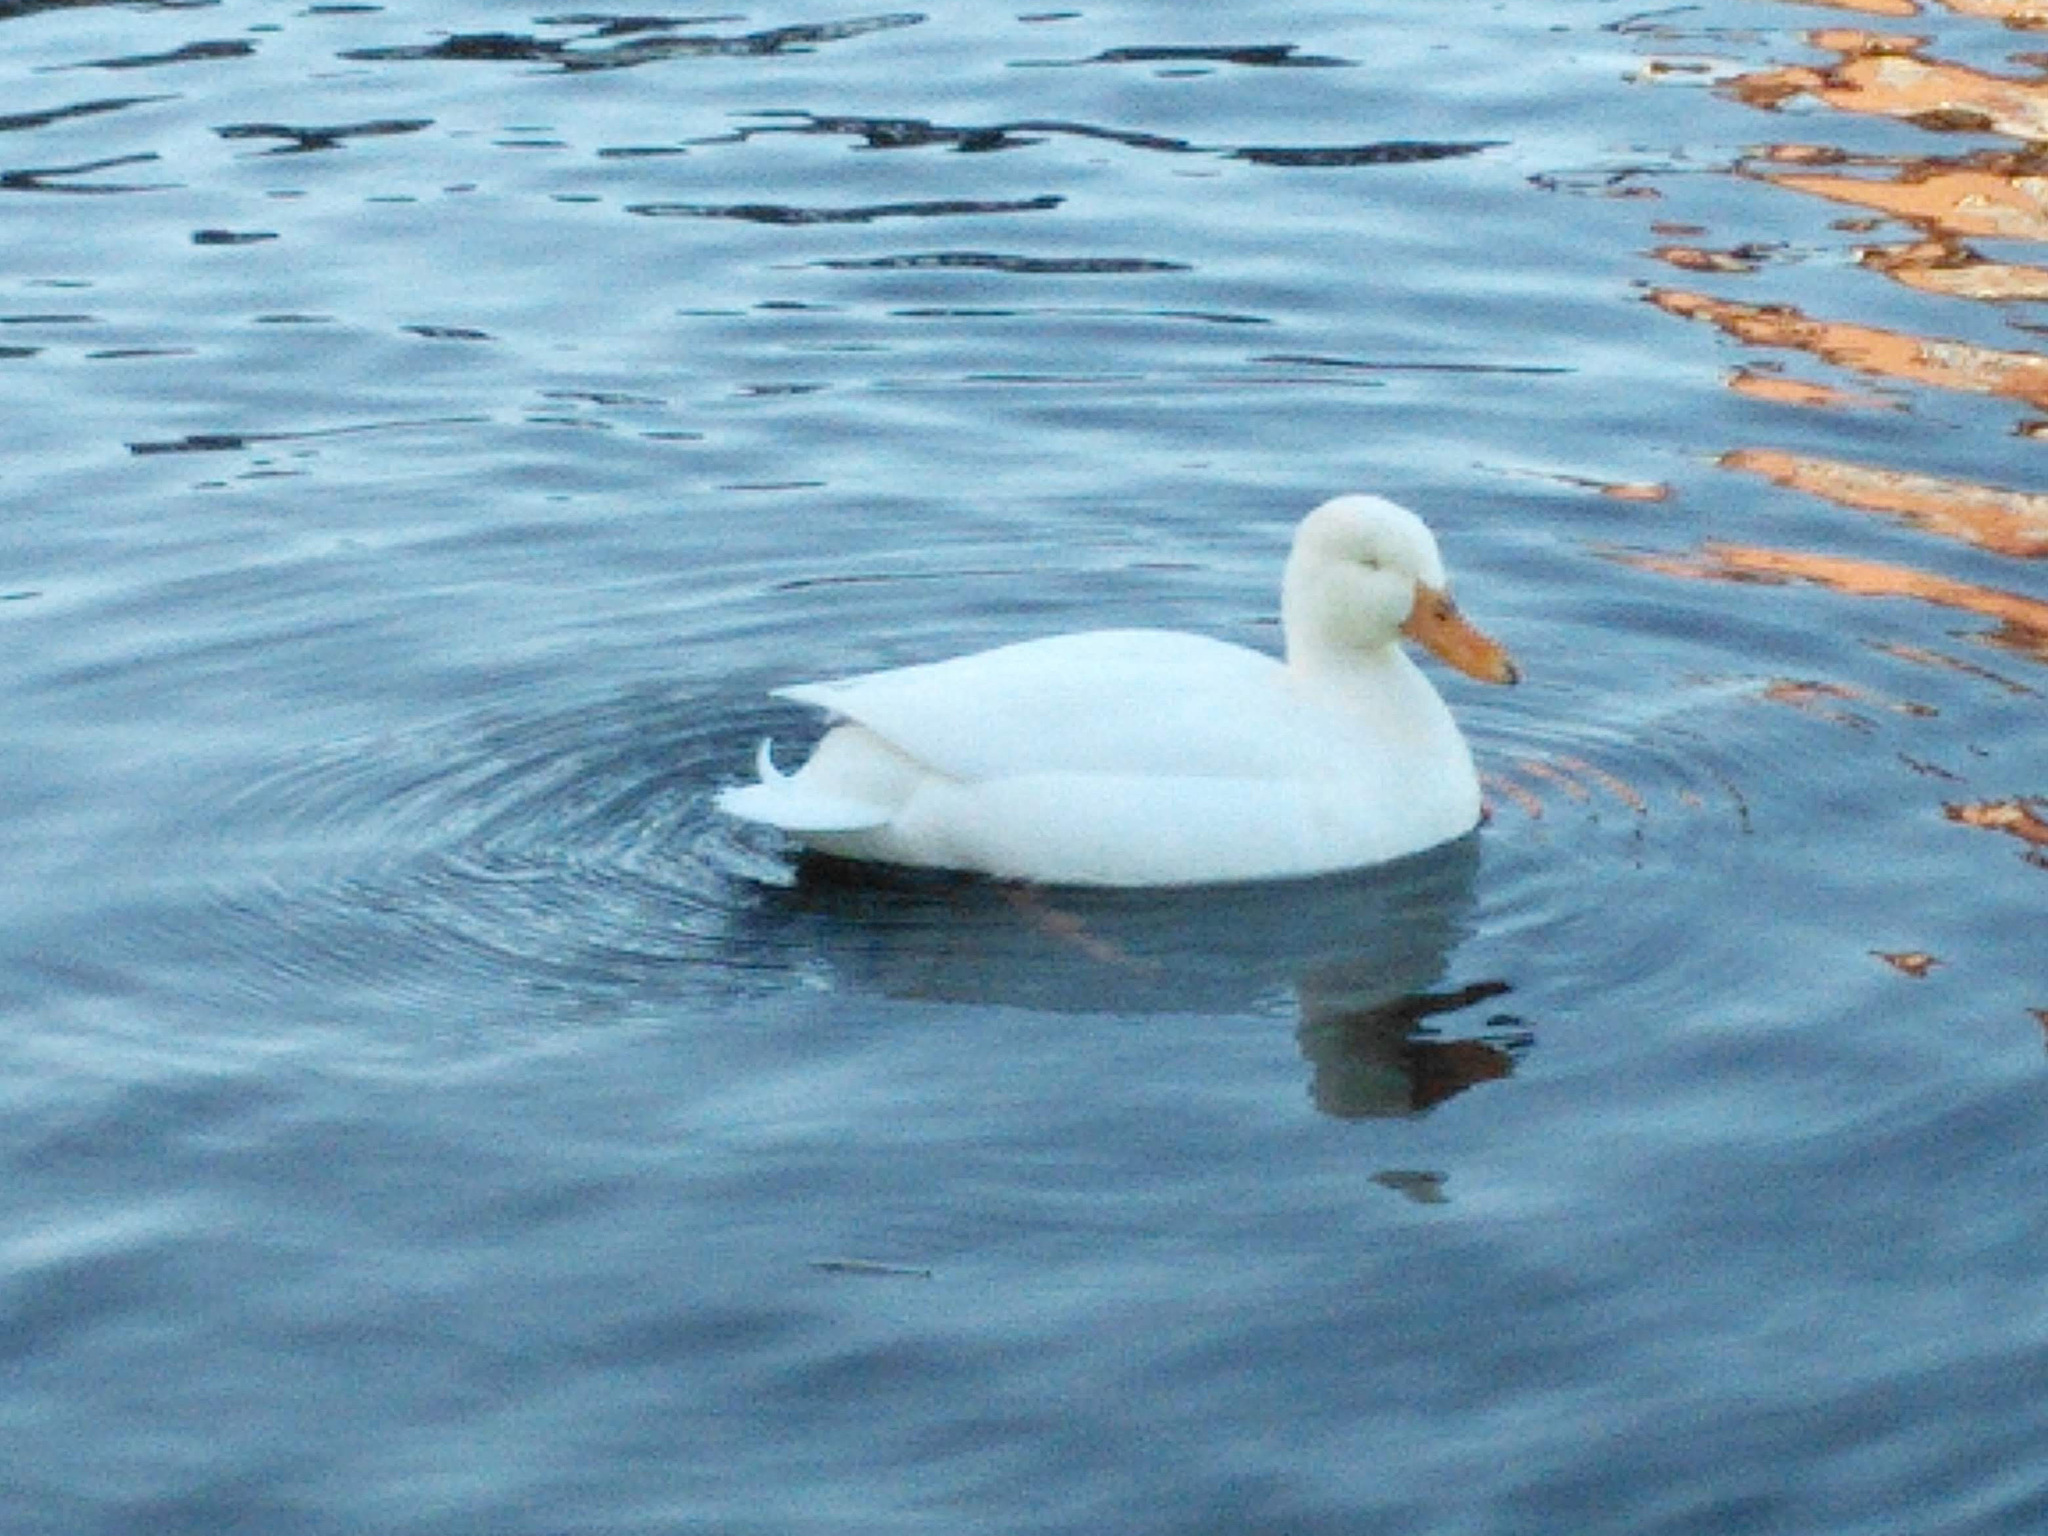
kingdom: Animalia
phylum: Chordata
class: Aves
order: Anseriformes
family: Anatidae
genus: Anas
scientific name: Anas platyrhynchos
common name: Mallard
